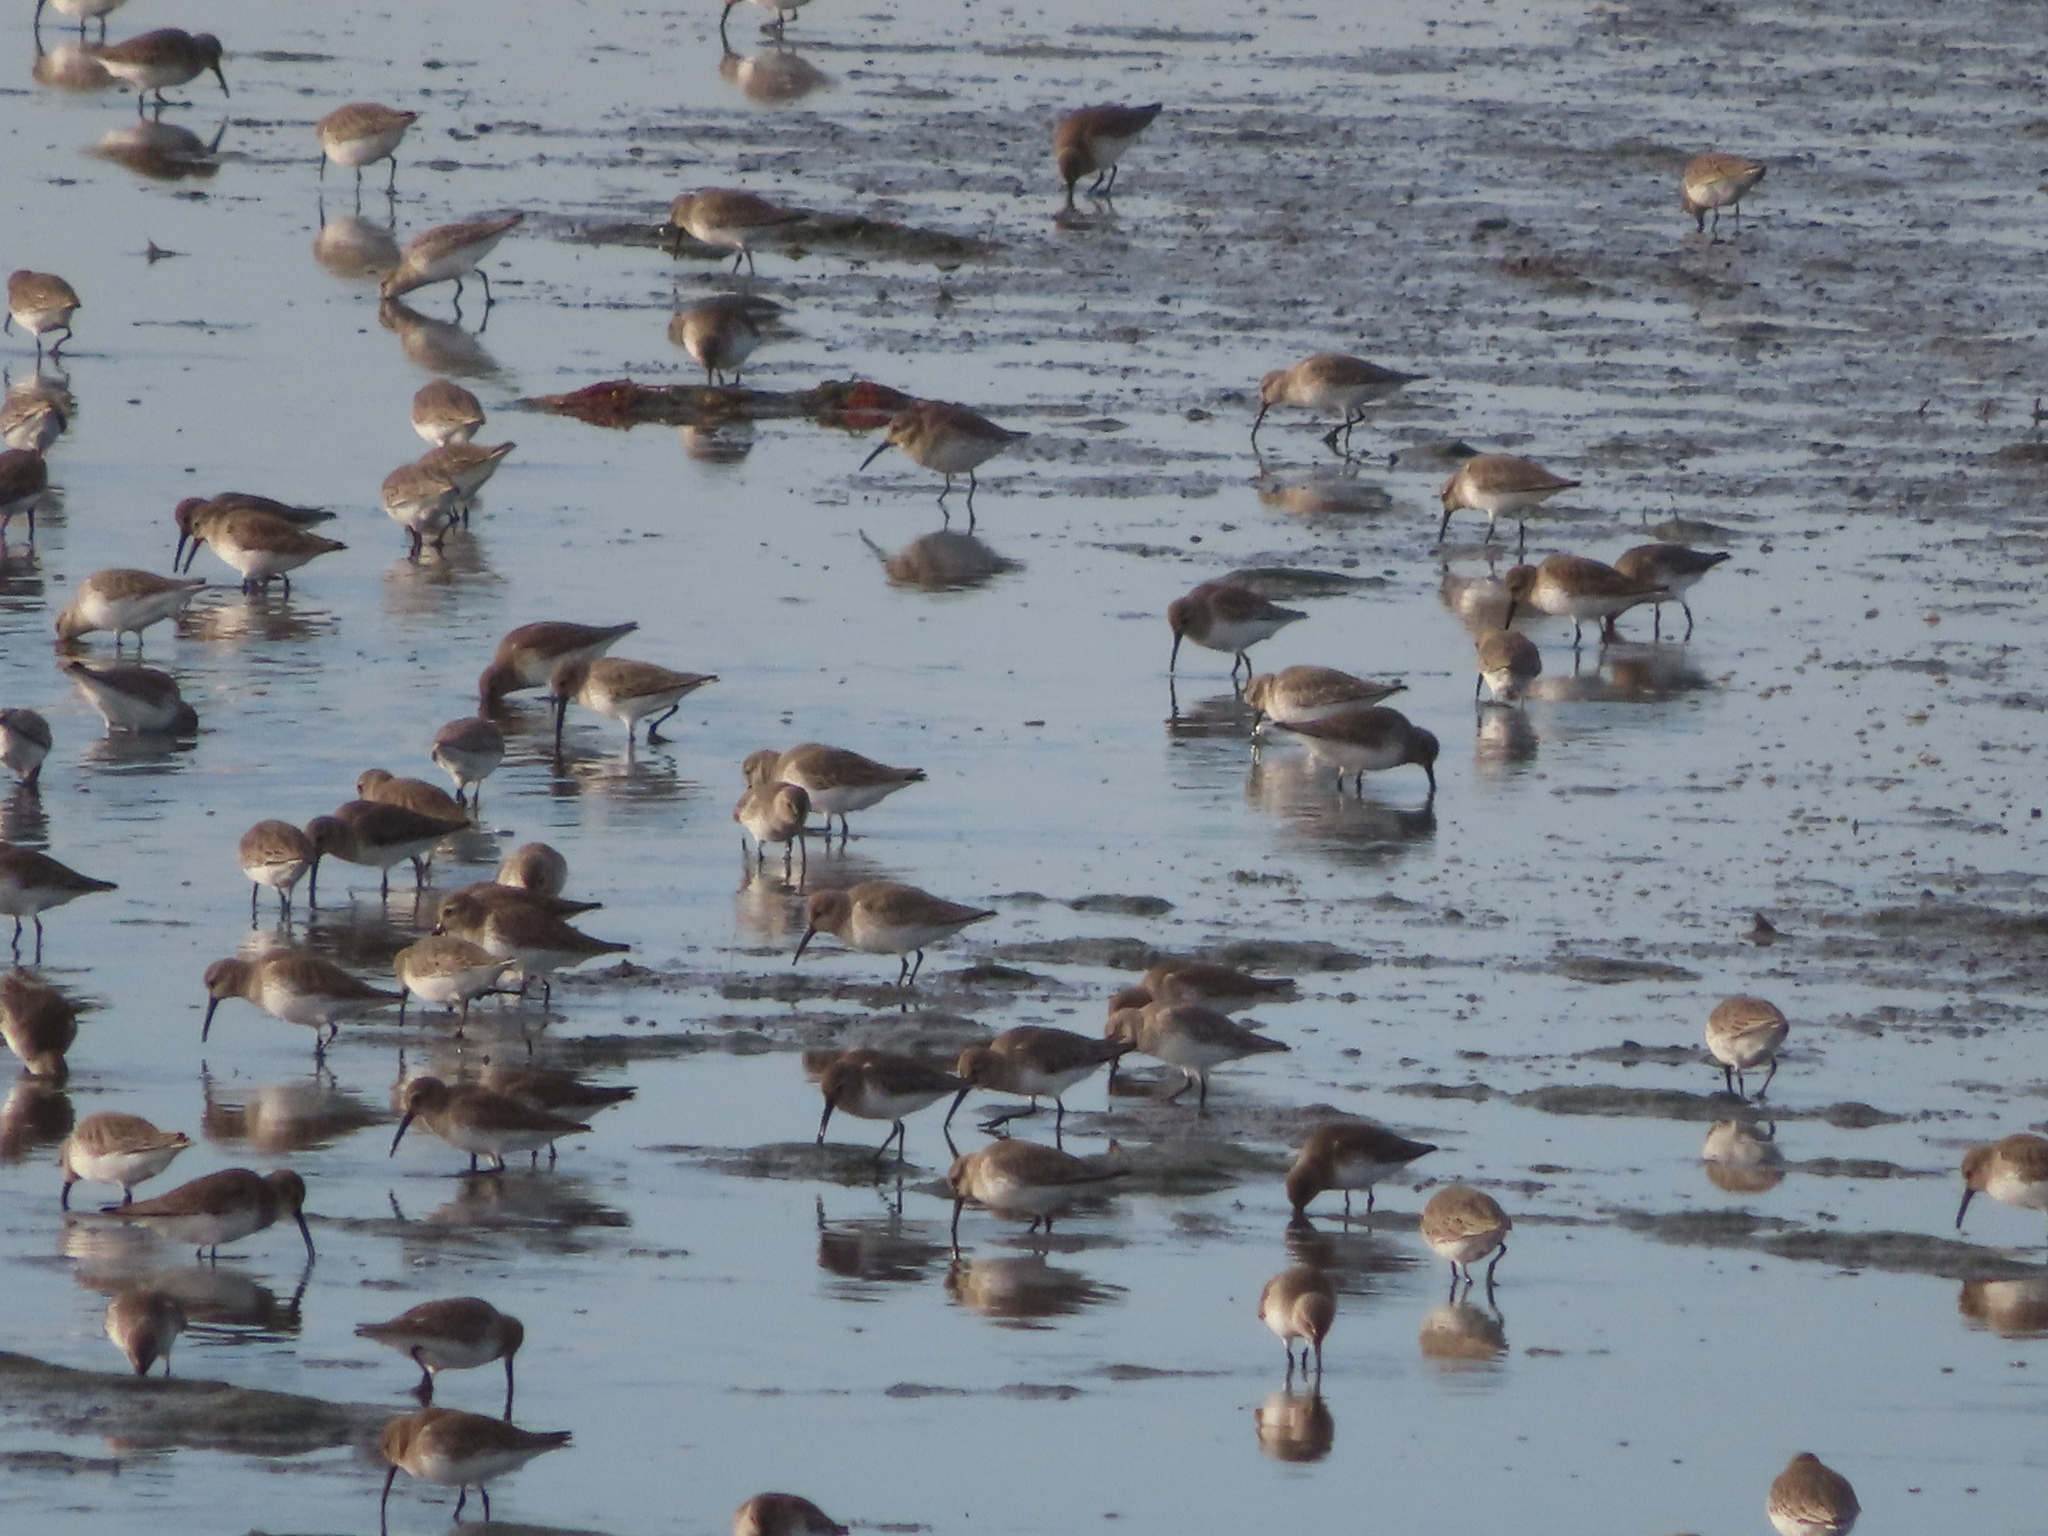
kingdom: Animalia
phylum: Chordata
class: Aves
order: Charadriiformes
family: Scolopacidae
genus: Calidris
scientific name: Calidris alpina
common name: Dunlin
